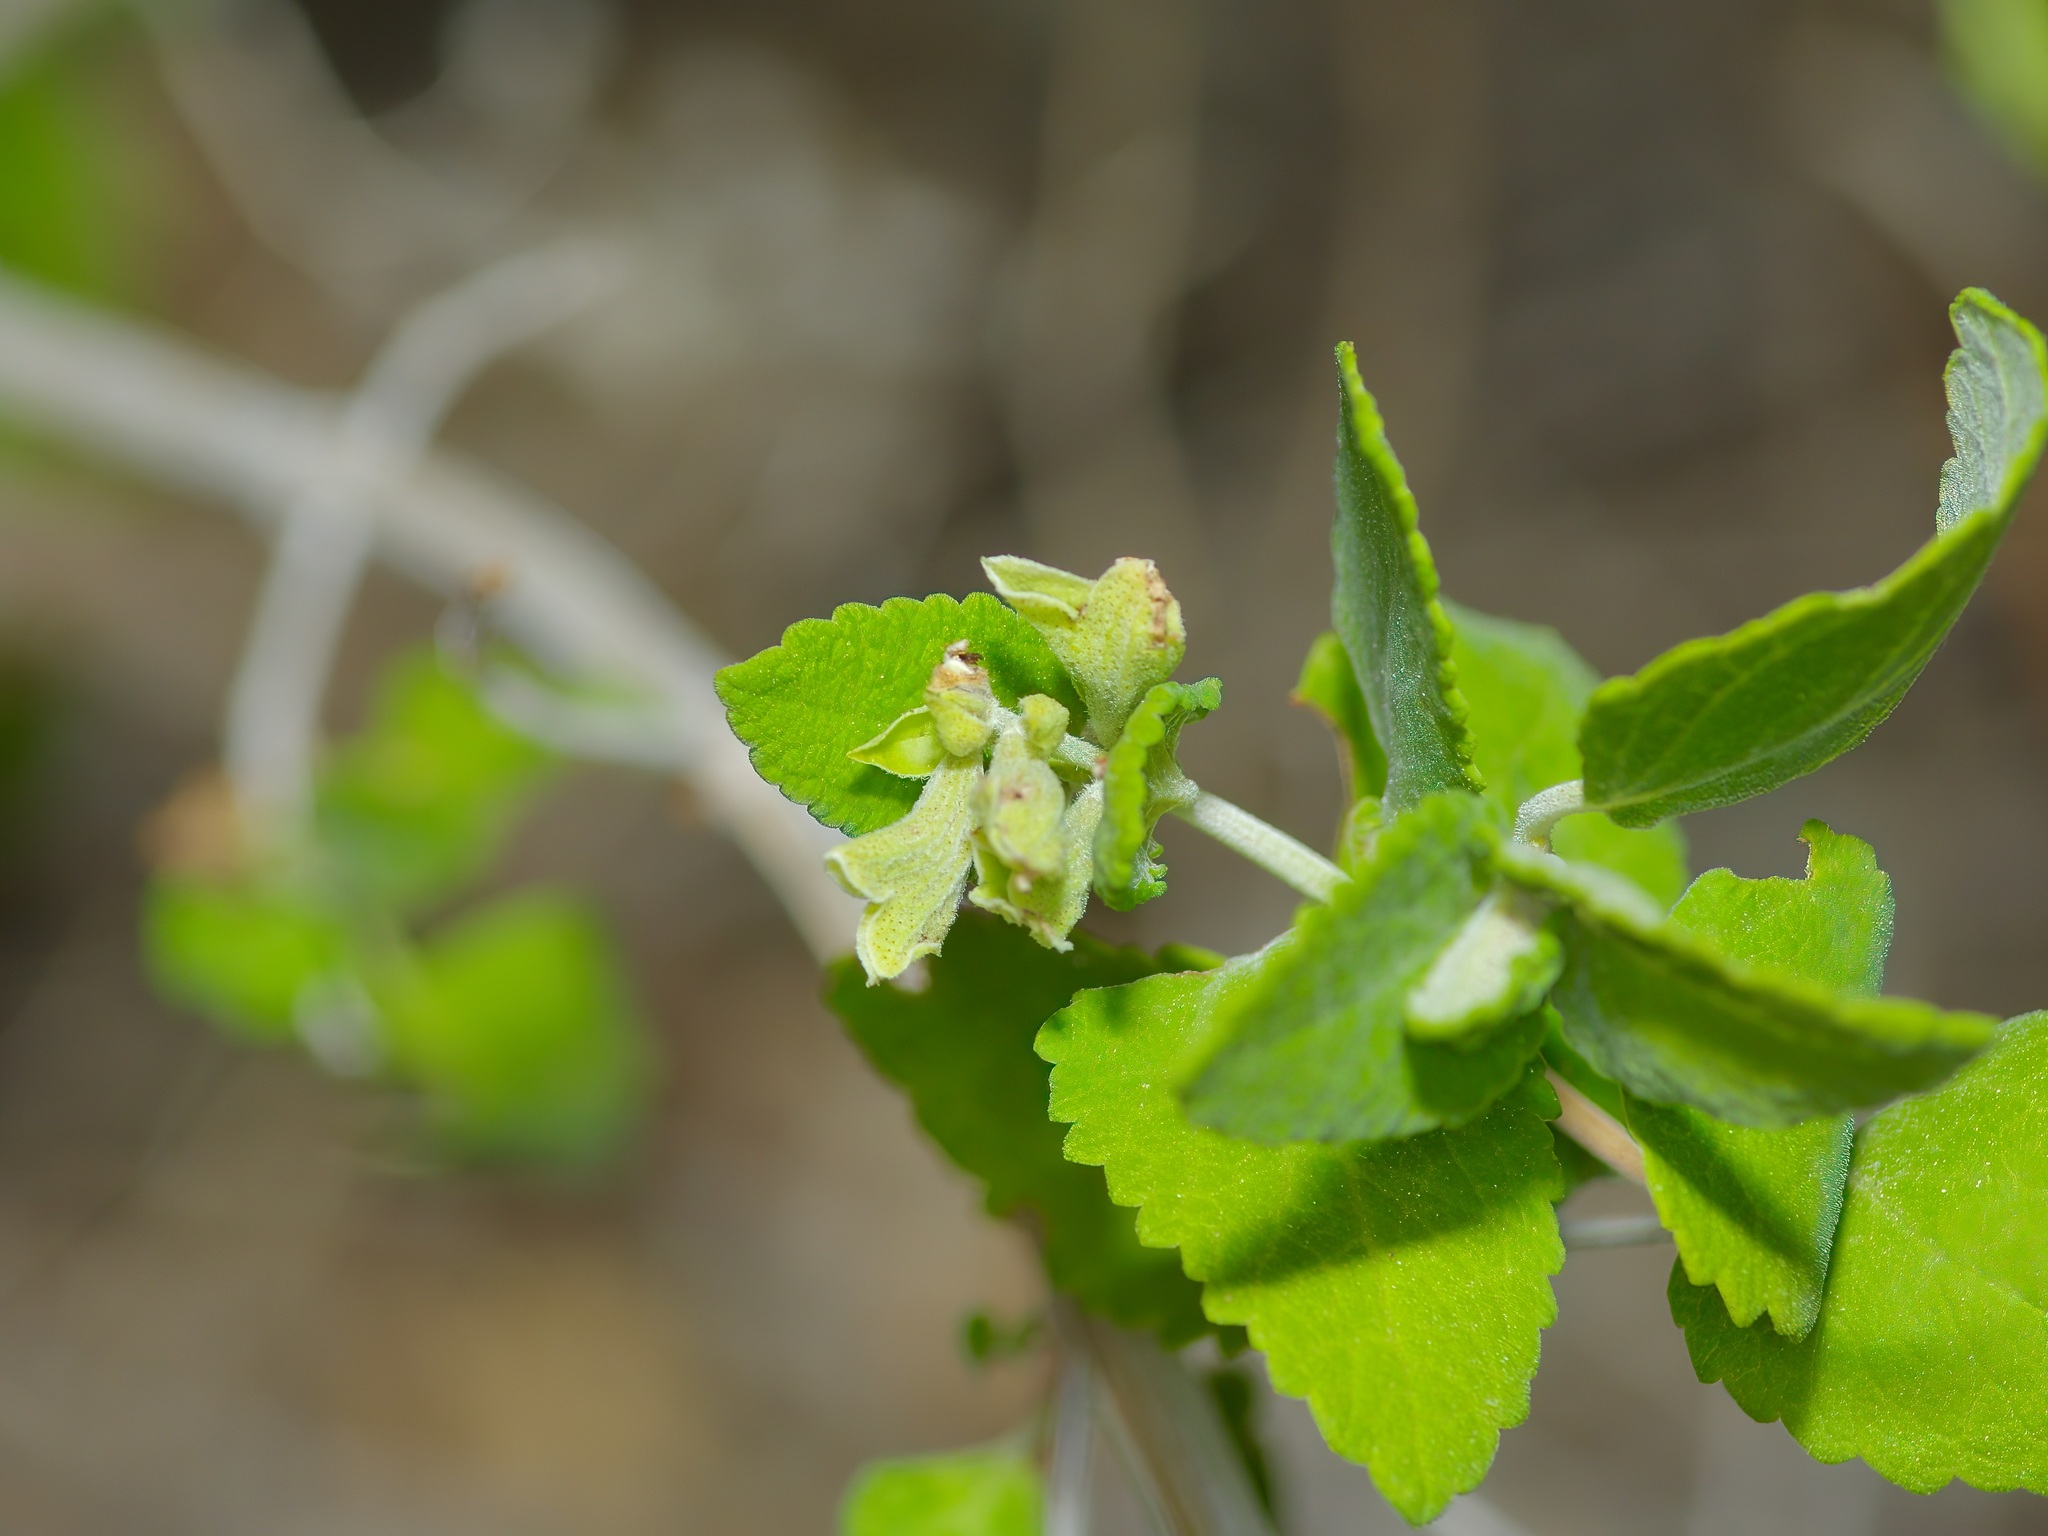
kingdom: Plantae
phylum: Tracheophyta
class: Magnoliopsida
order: Lamiales
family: Lamiaceae
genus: Salvia
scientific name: Salvia ballotiflora
